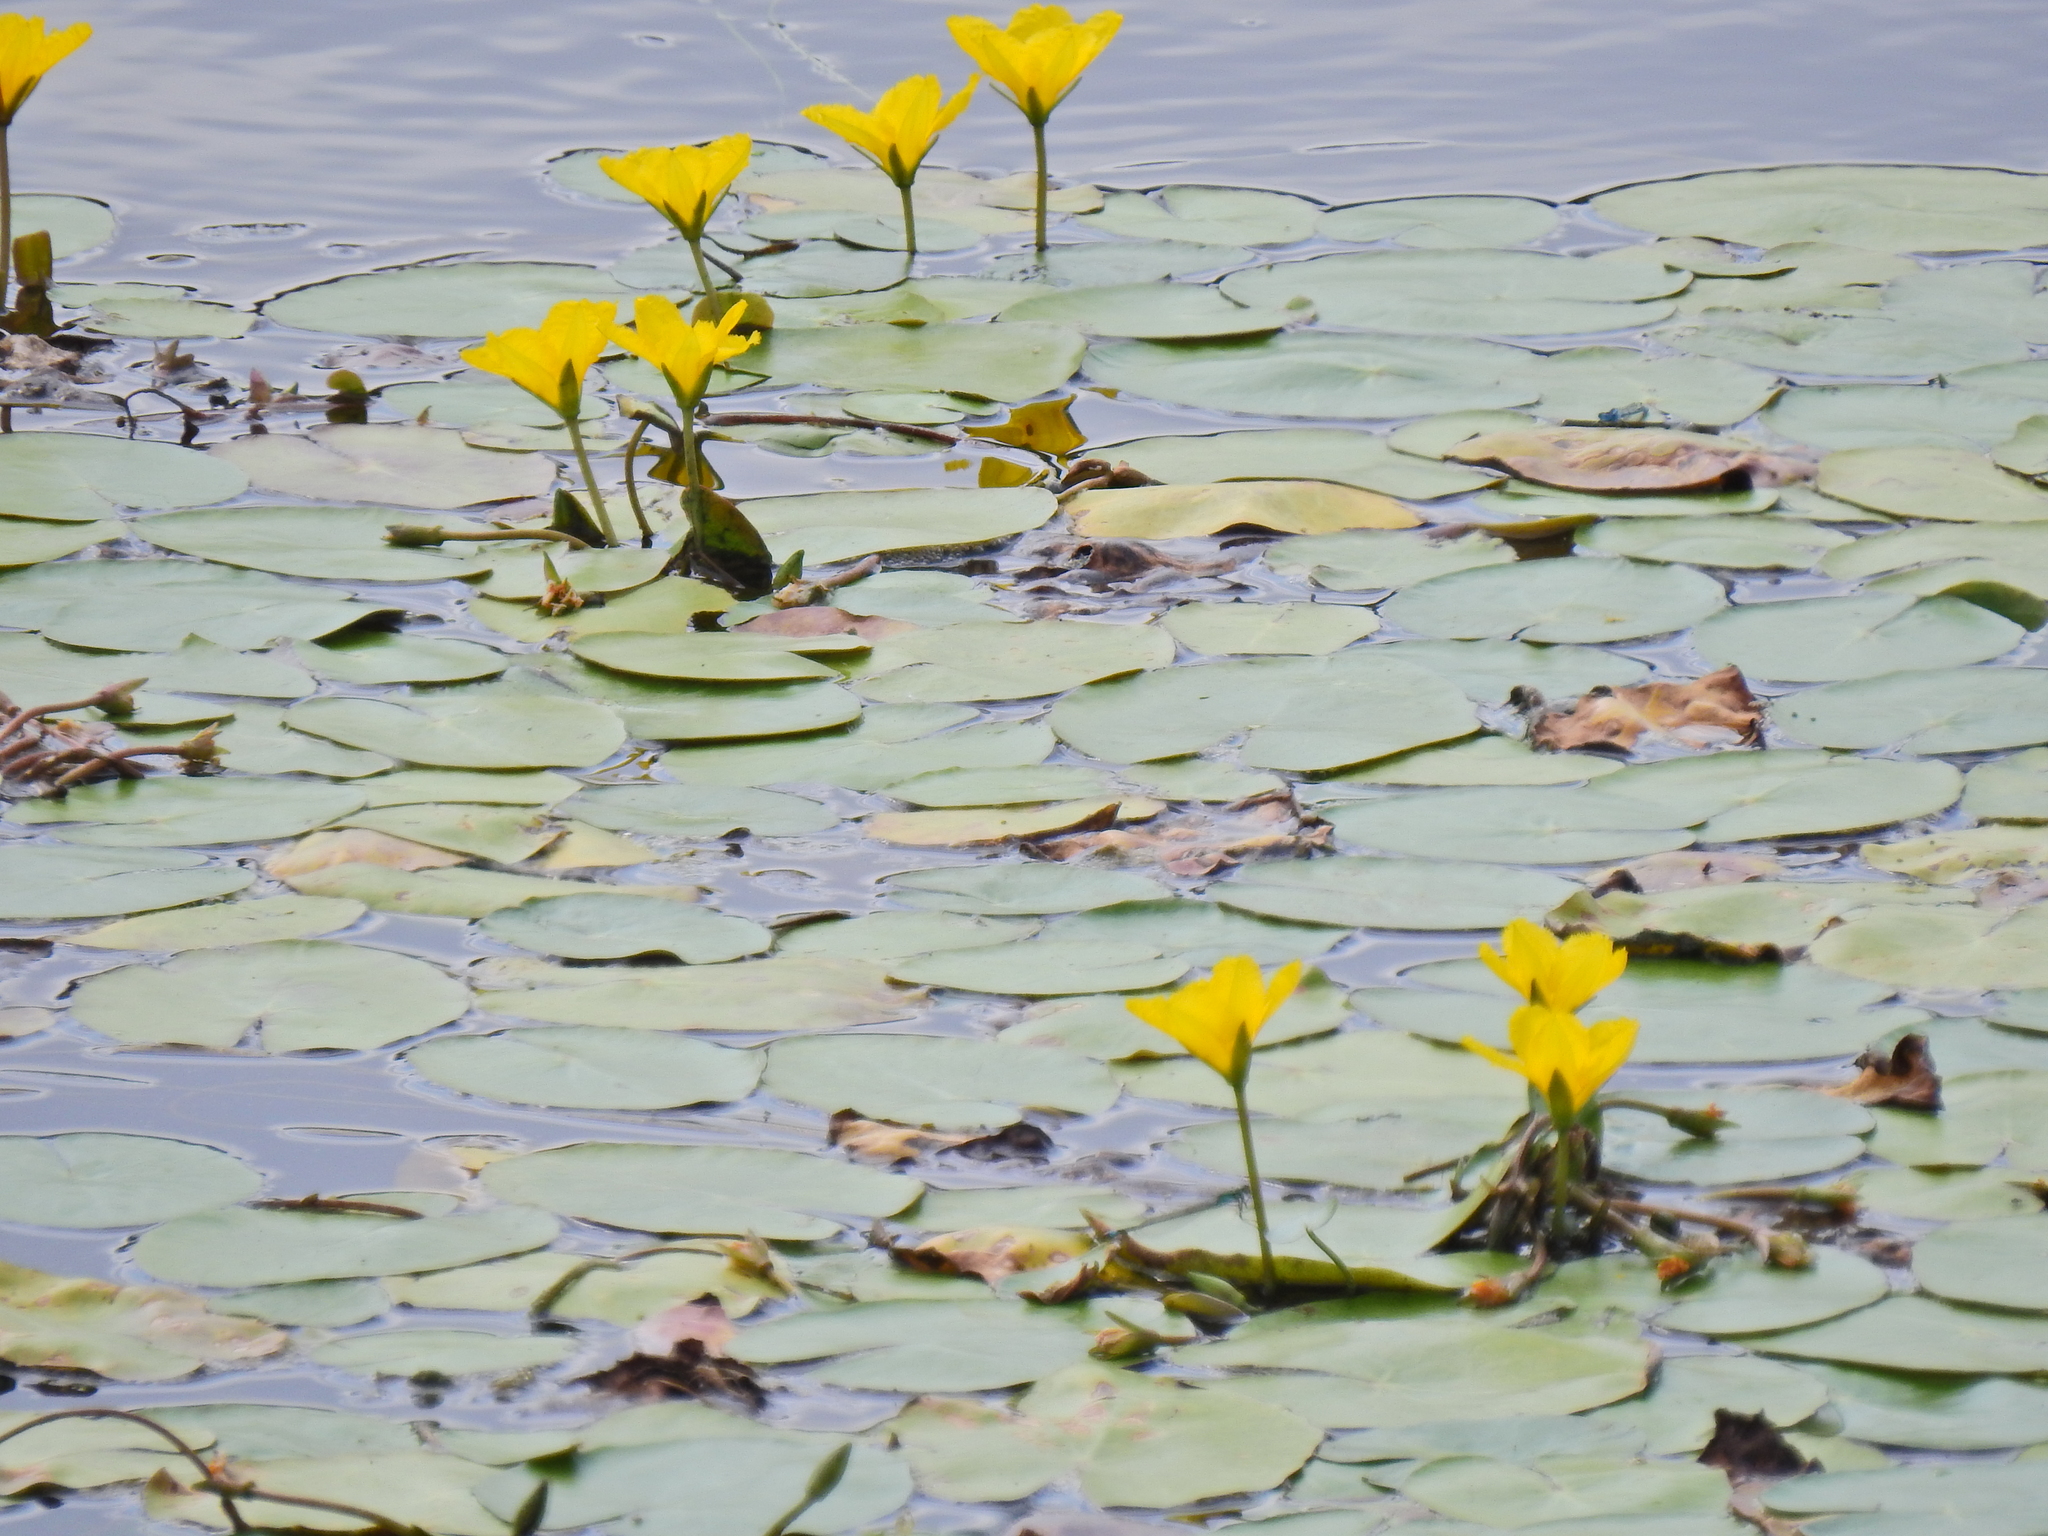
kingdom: Plantae
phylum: Tracheophyta
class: Magnoliopsida
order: Asterales
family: Menyanthaceae
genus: Nymphoides
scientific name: Nymphoides peltata
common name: Fringed water-lily
